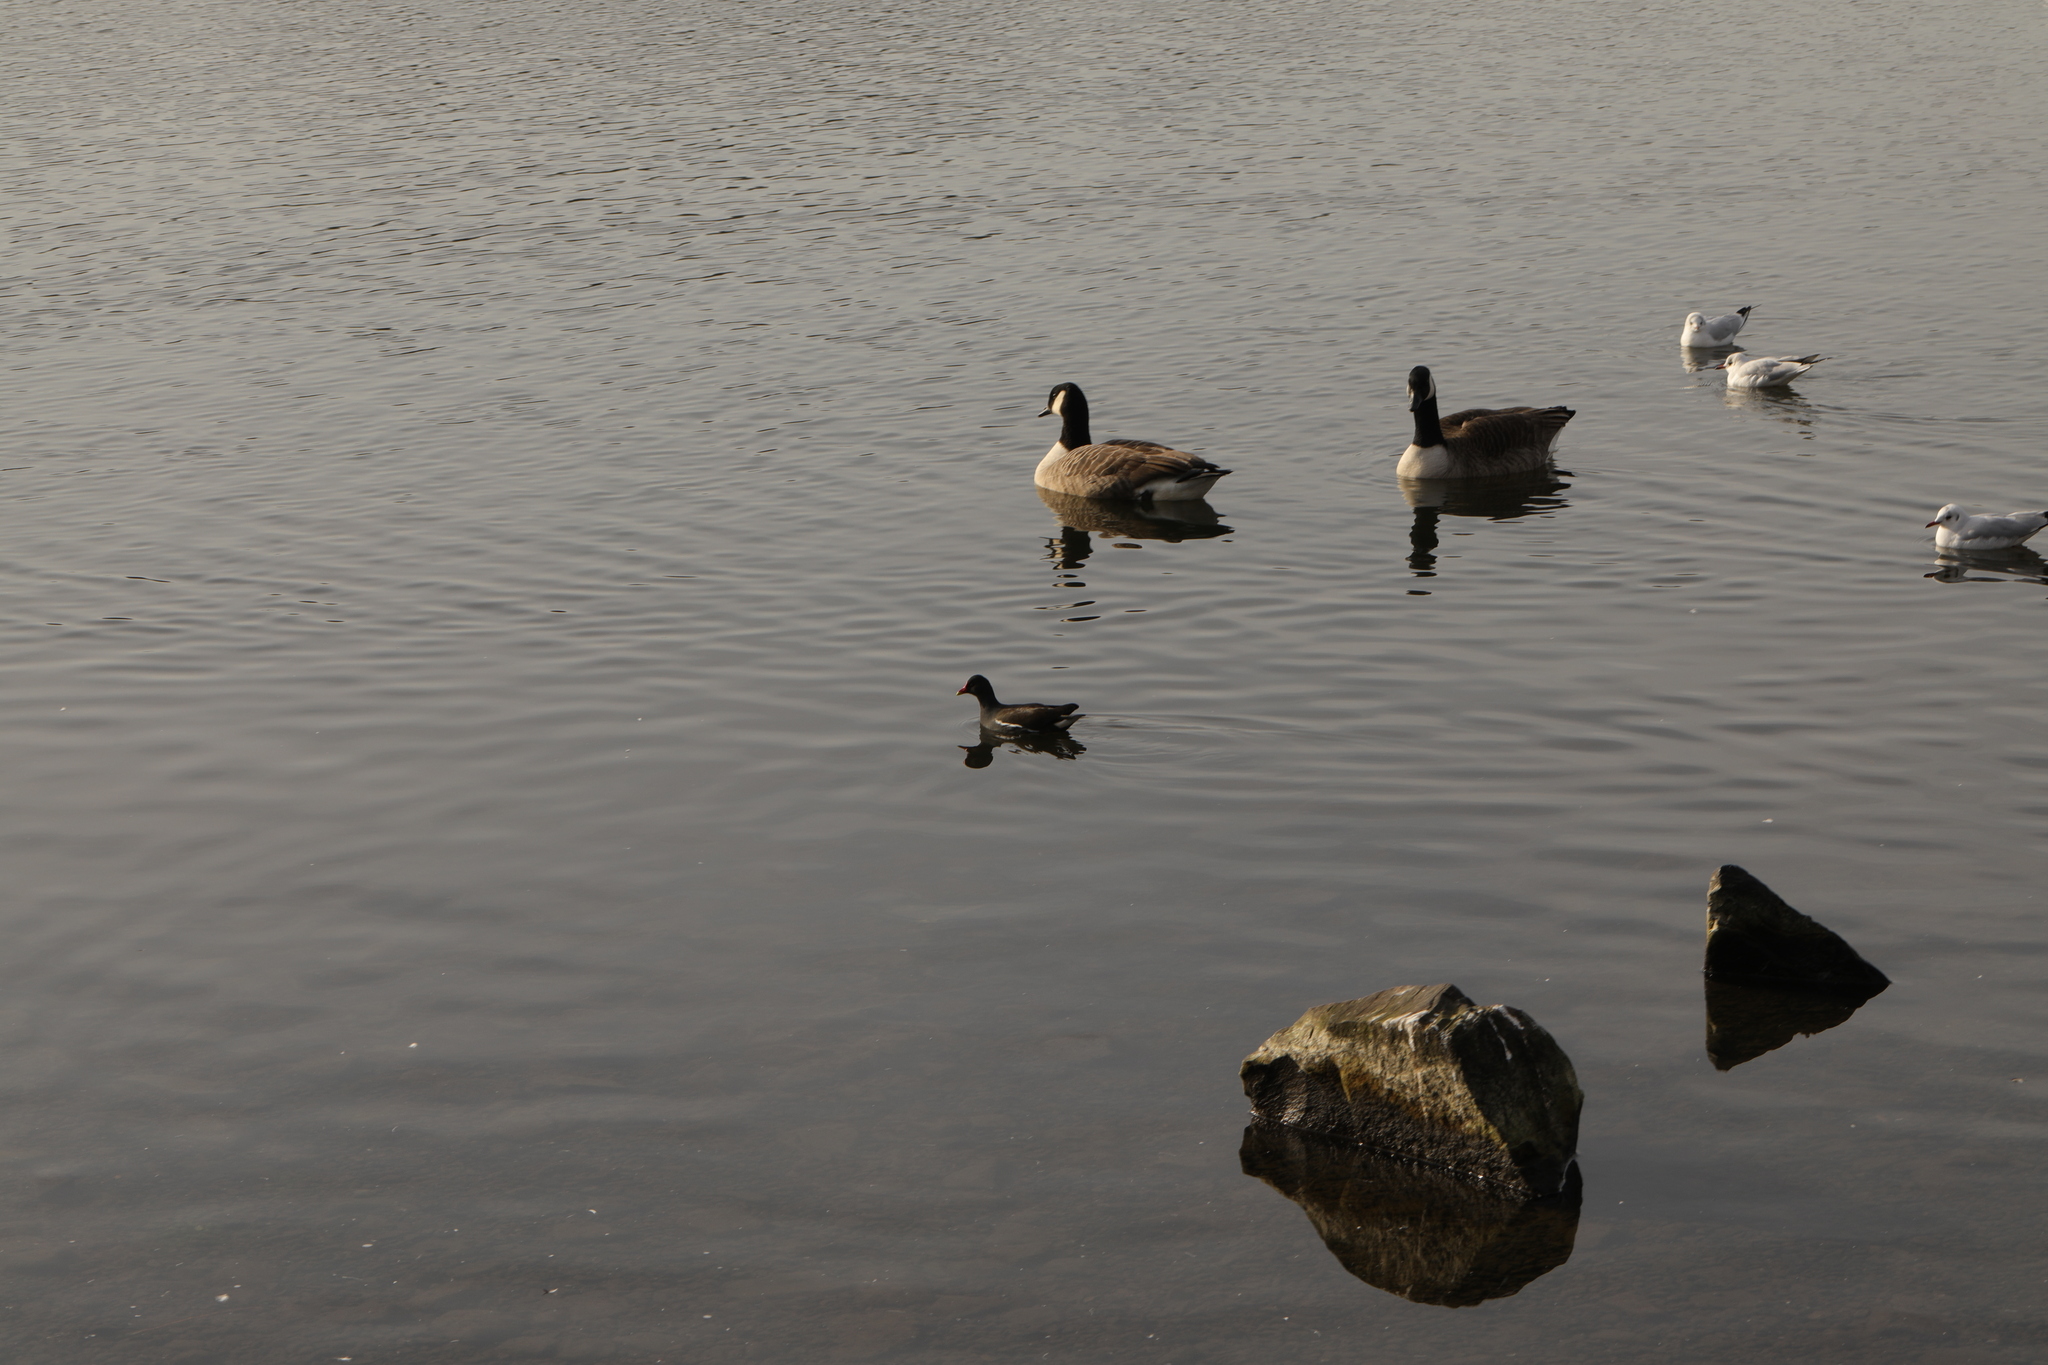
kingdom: Animalia
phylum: Chordata
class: Aves
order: Anseriformes
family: Anatidae
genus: Branta
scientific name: Branta canadensis
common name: Canada goose
